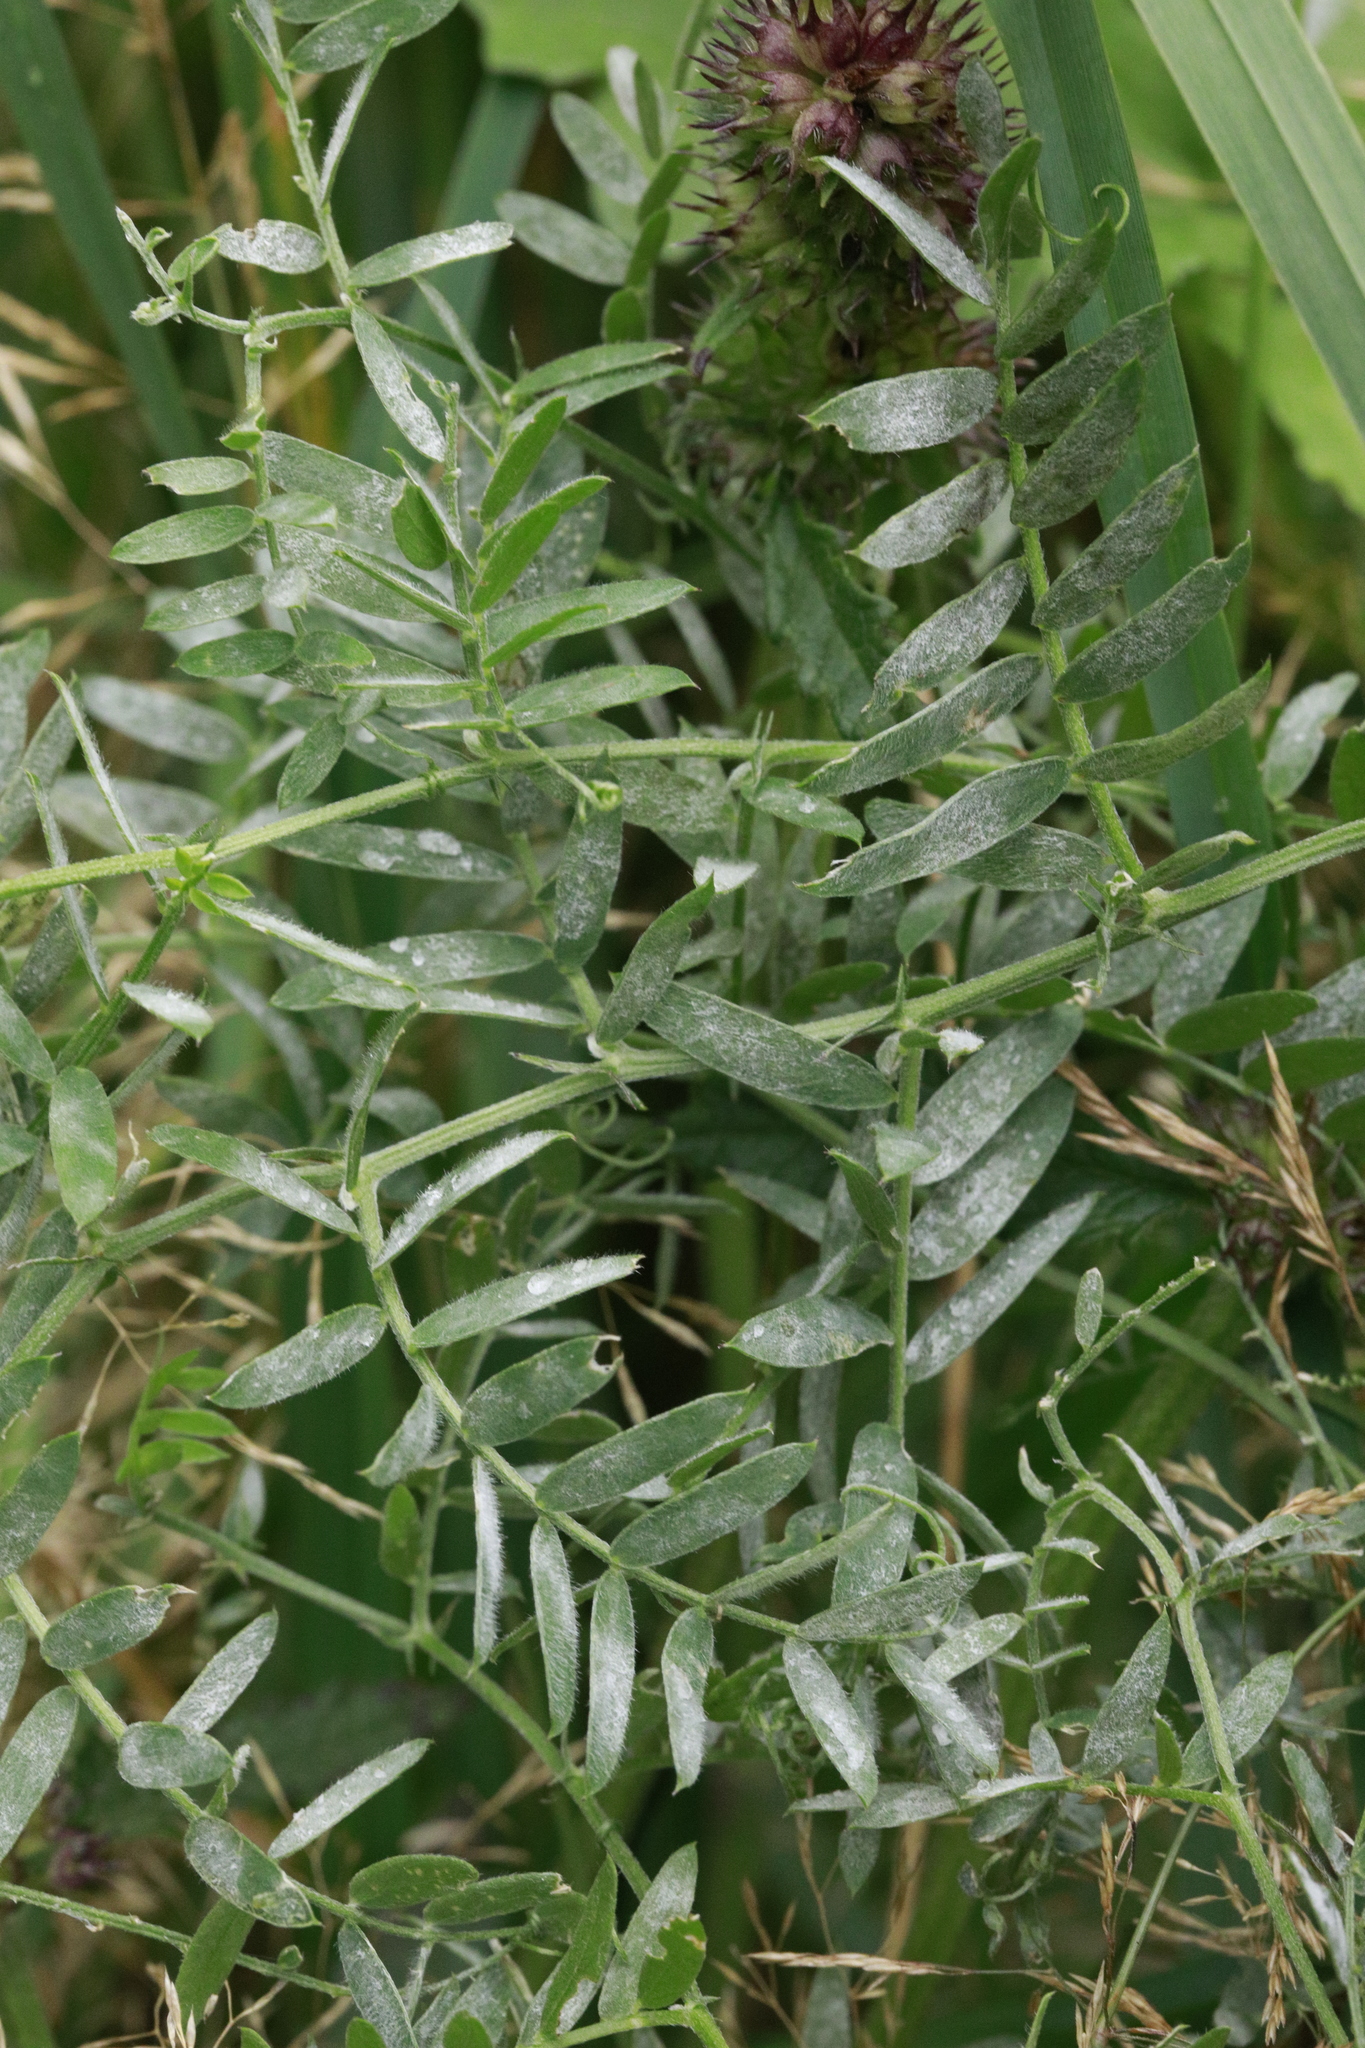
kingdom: Plantae
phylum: Tracheophyta
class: Magnoliopsida
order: Fabales
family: Fabaceae
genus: Vicia
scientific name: Vicia cracca
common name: Bird vetch
